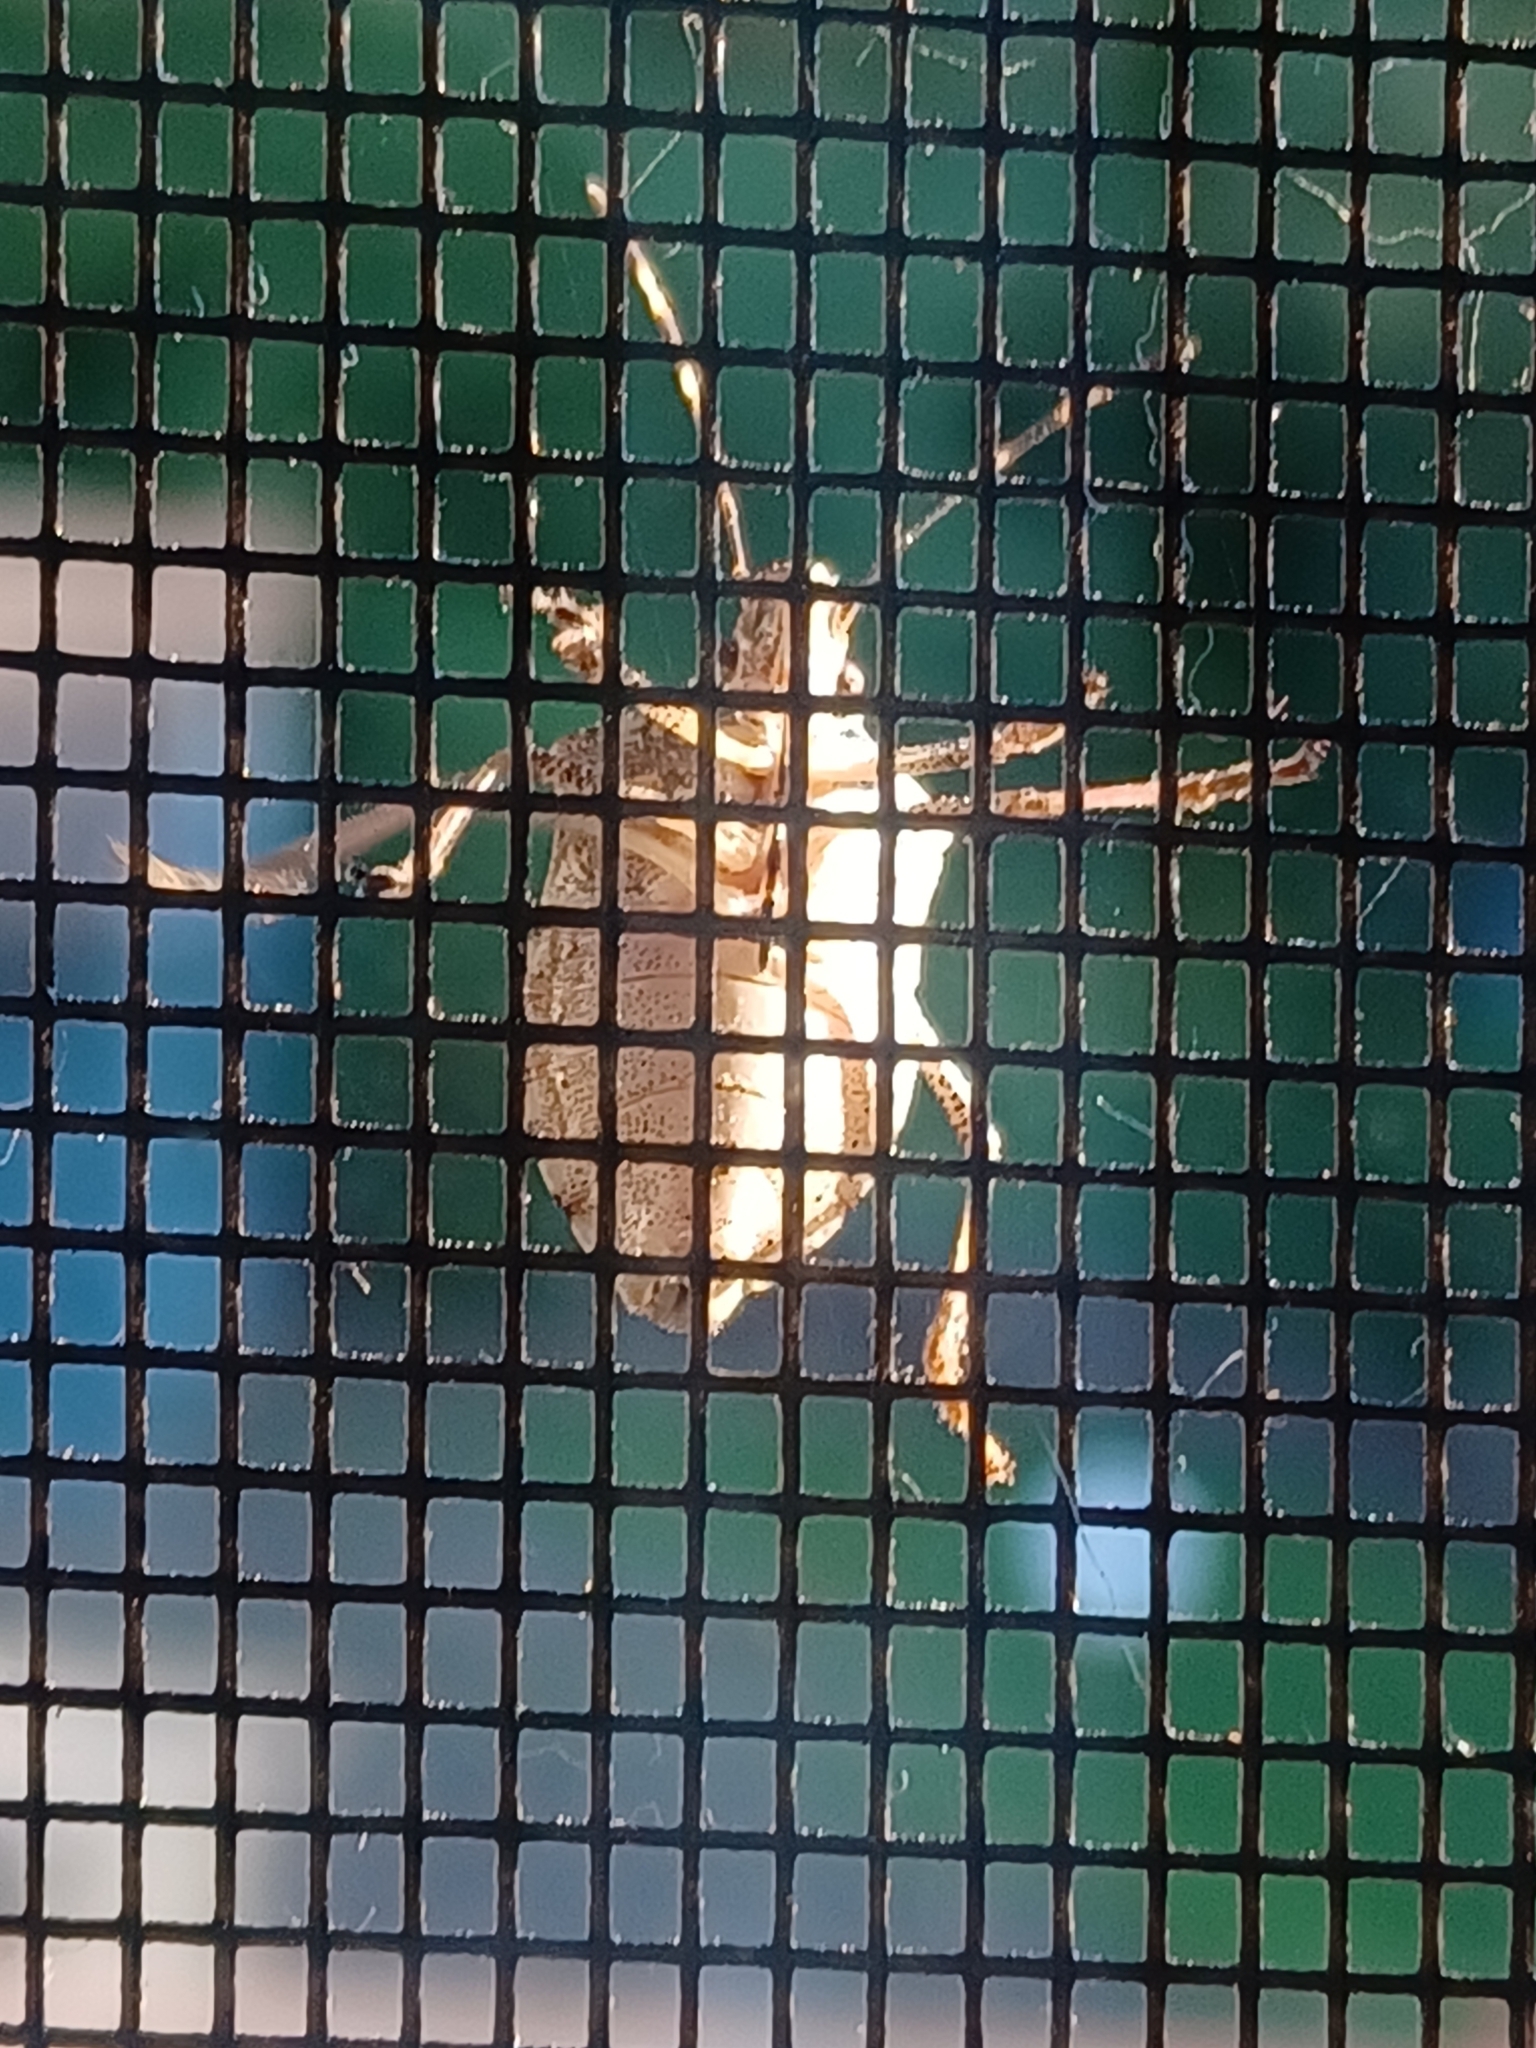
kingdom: Animalia
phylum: Arthropoda
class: Insecta
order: Hemiptera
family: Pentatomidae
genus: Halyomorpha
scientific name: Halyomorpha halys
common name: Brown marmorated stink bug
